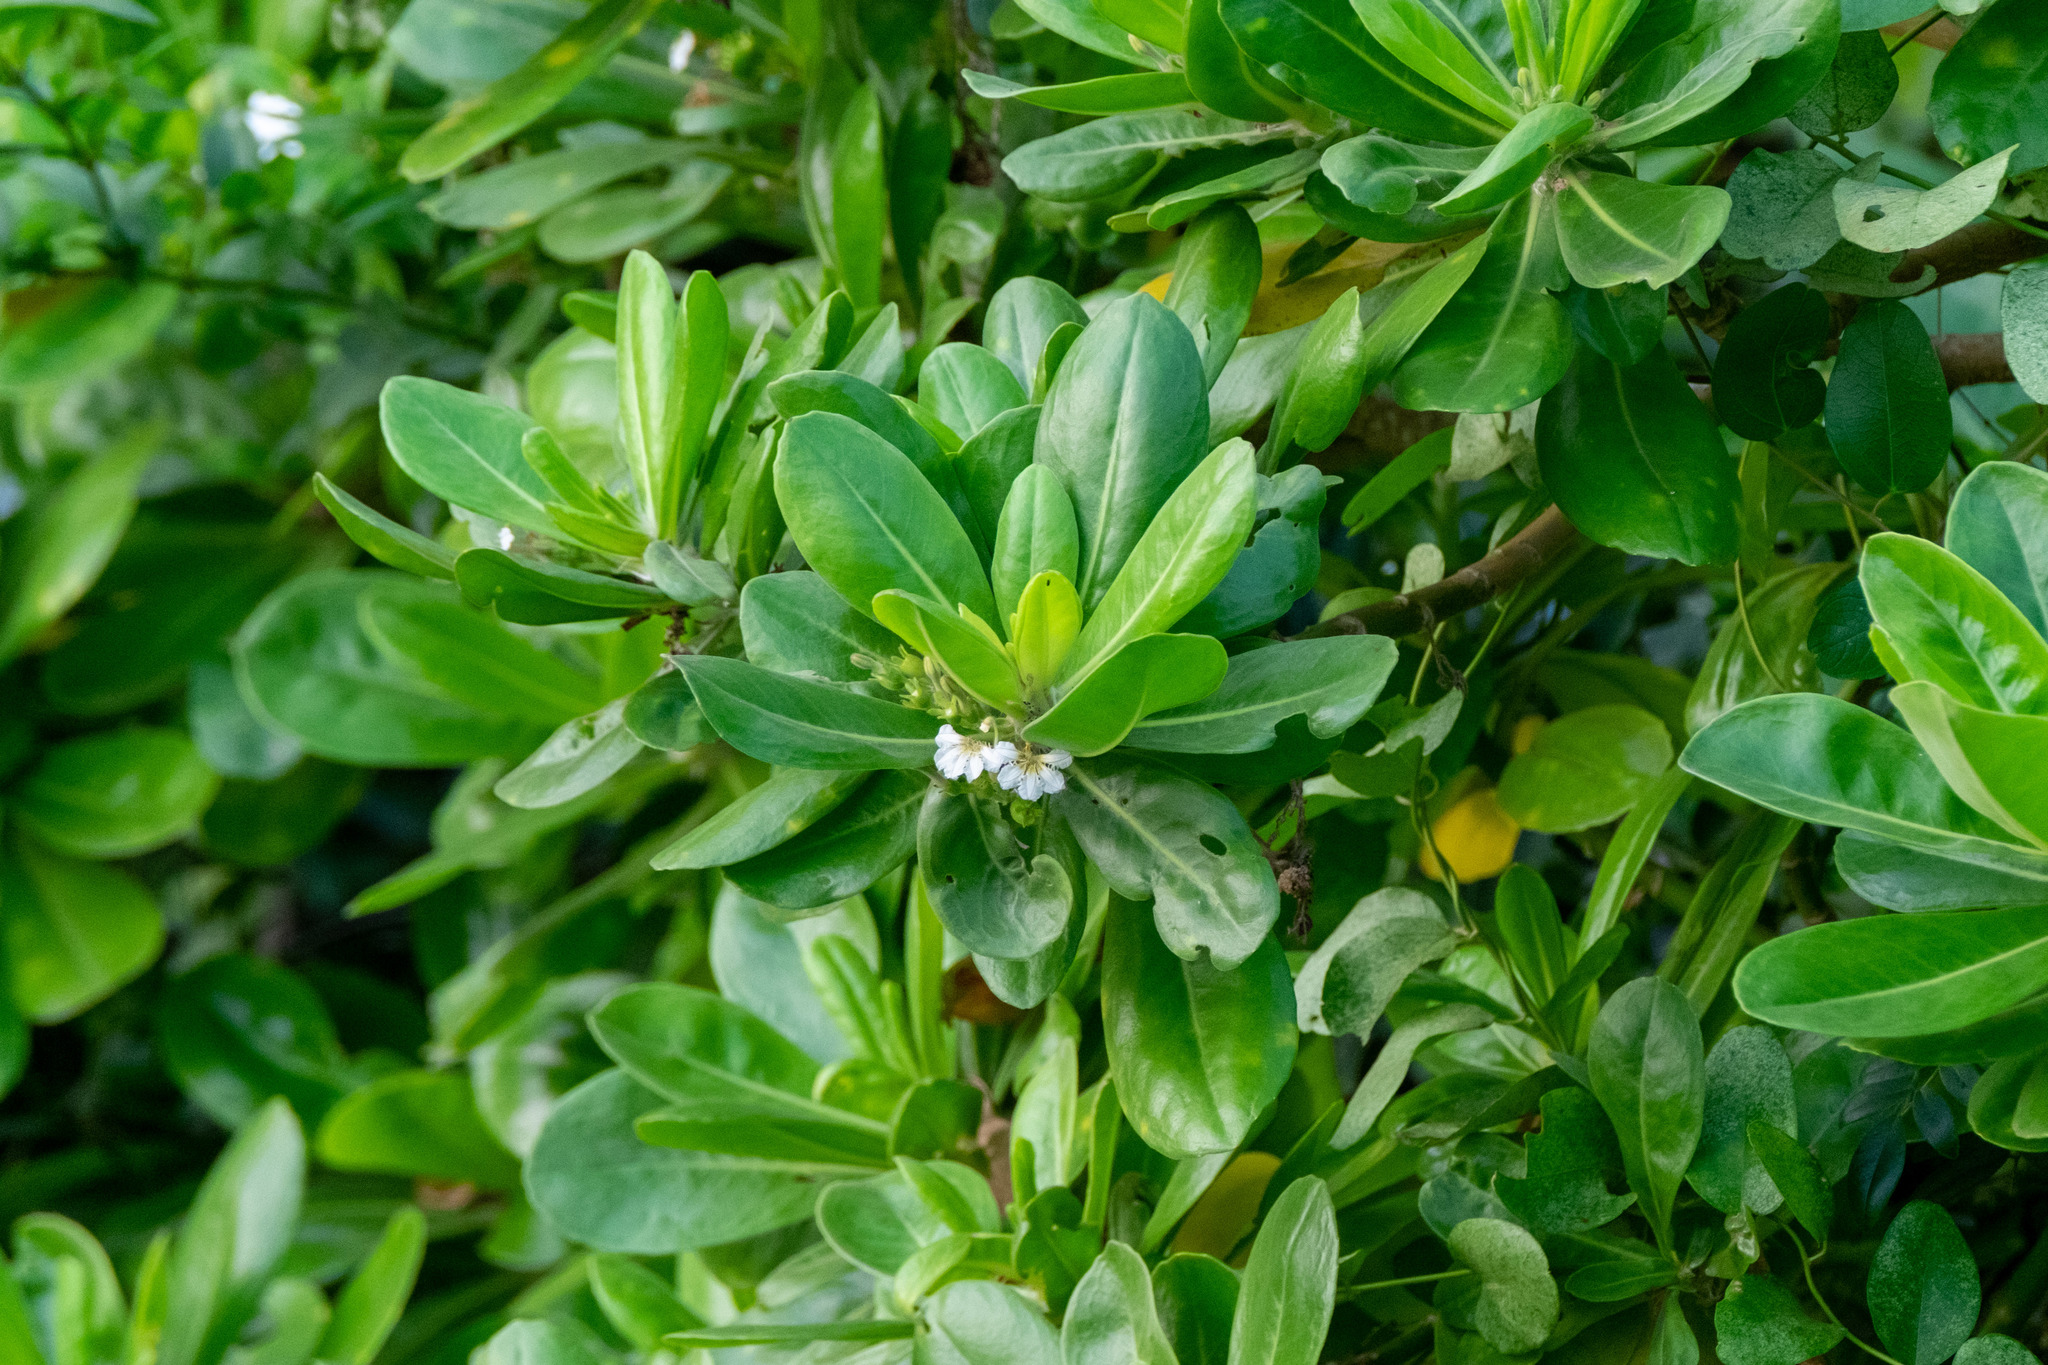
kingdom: Plantae
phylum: Tracheophyta
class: Magnoliopsida
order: Asterales
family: Goodeniaceae
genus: Scaevola
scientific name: Scaevola taccada
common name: Sea lettucetree
